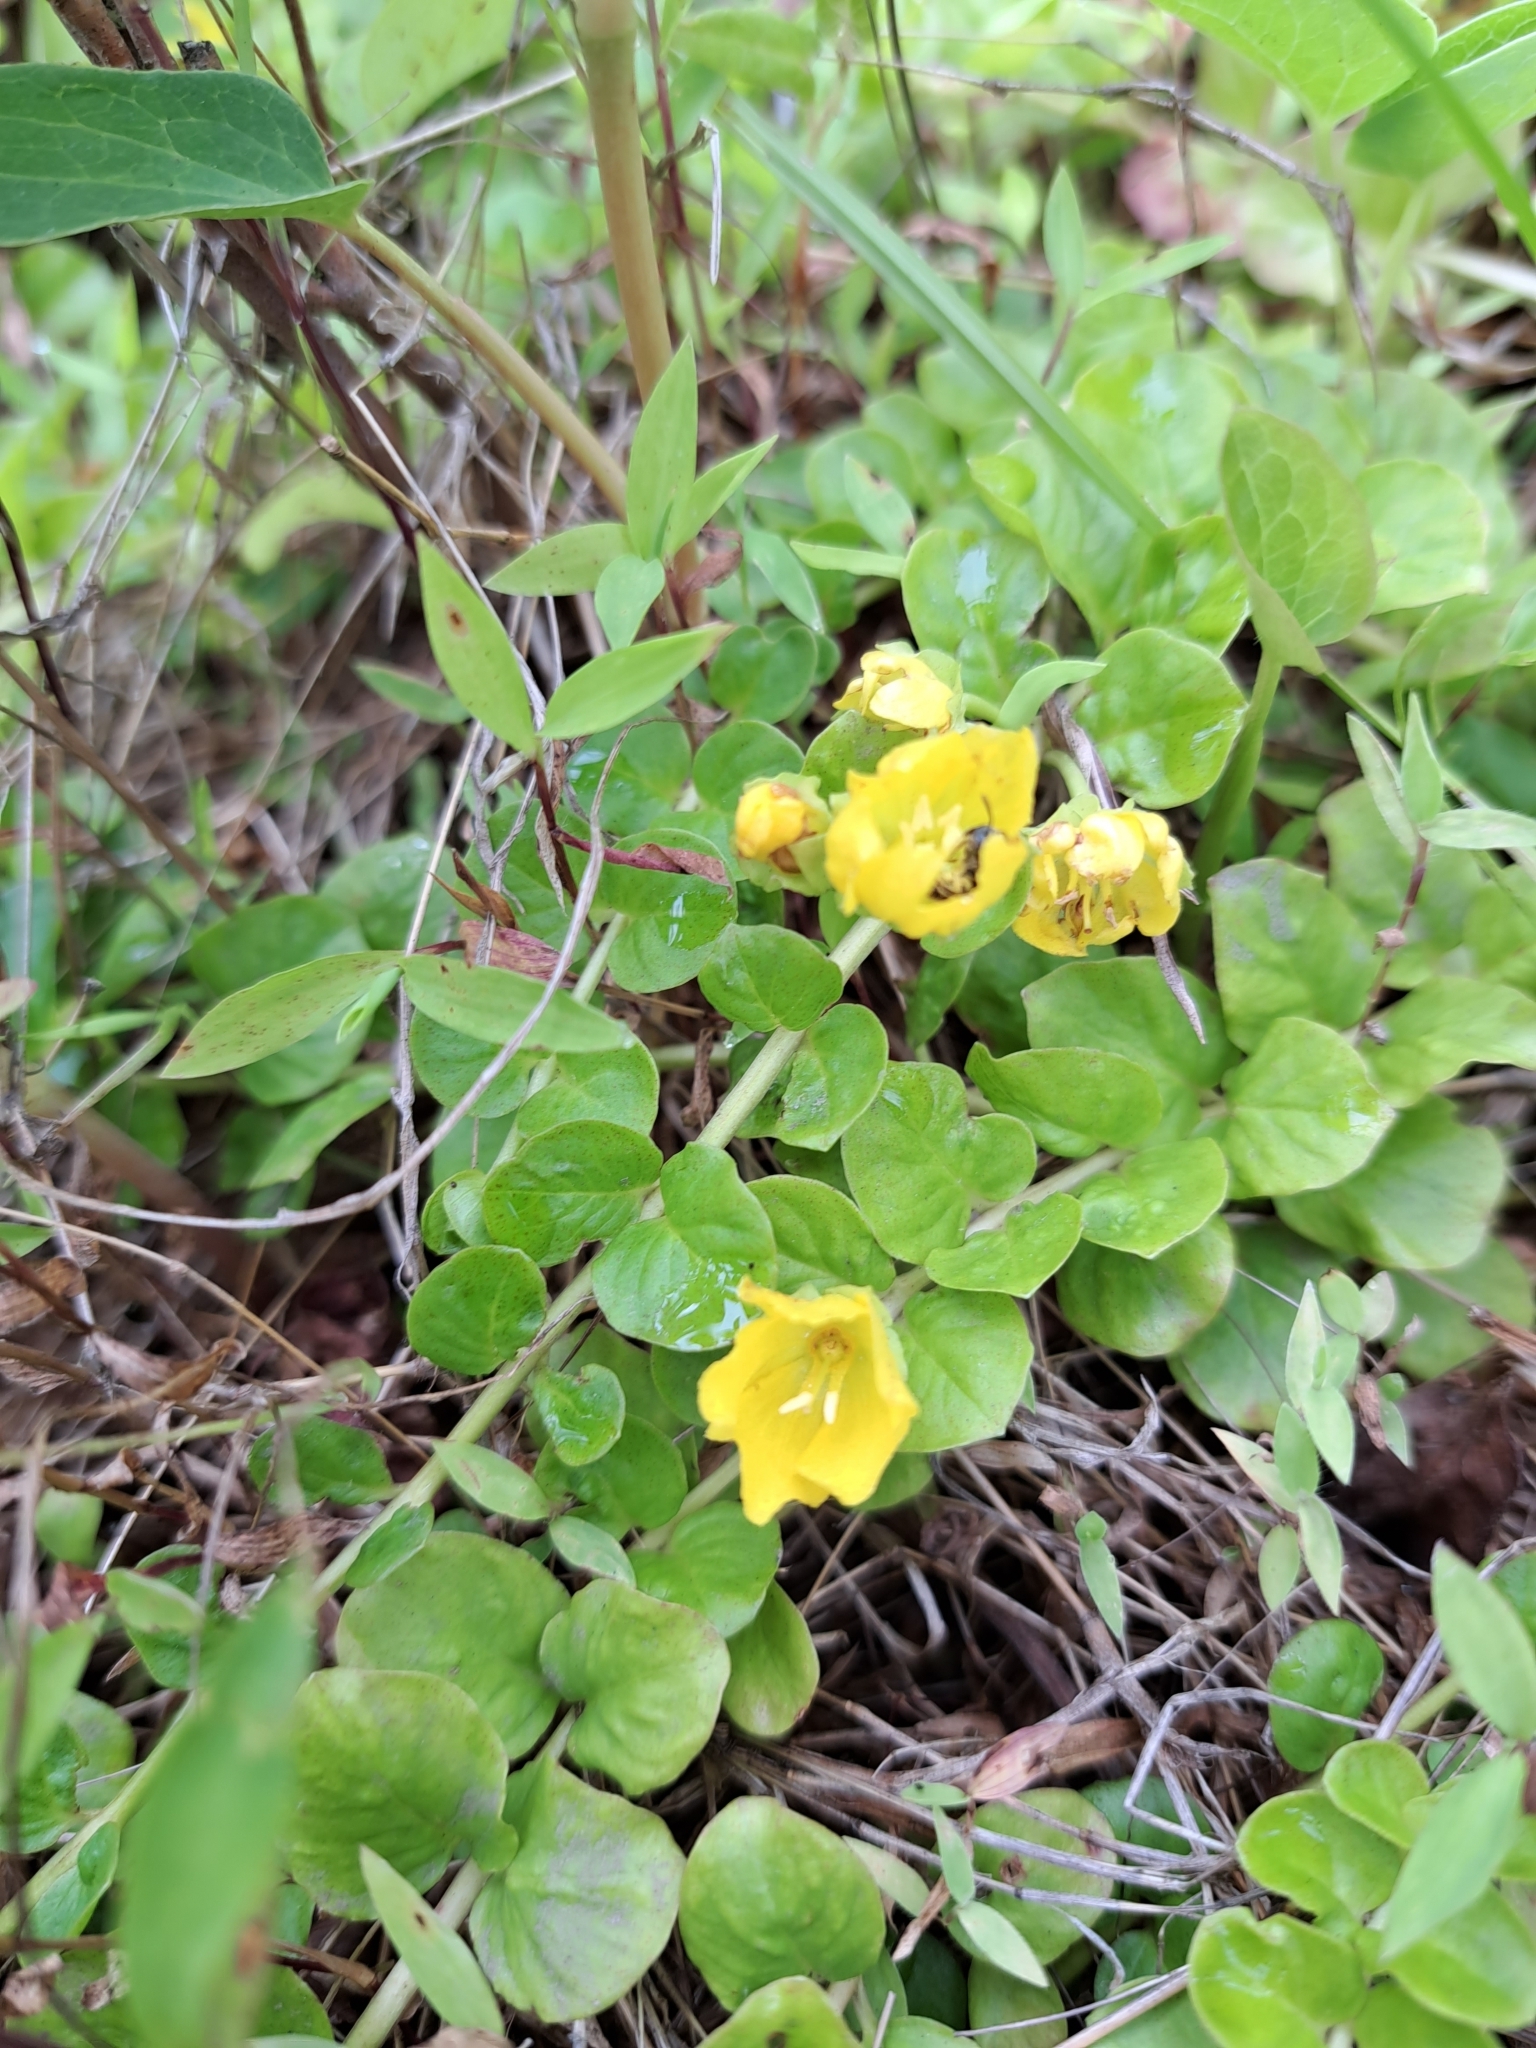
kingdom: Plantae
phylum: Tracheophyta
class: Magnoliopsida
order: Ericales
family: Primulaceae
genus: Lysimachia
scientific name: Lysimachia nummularia
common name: Moneywort
